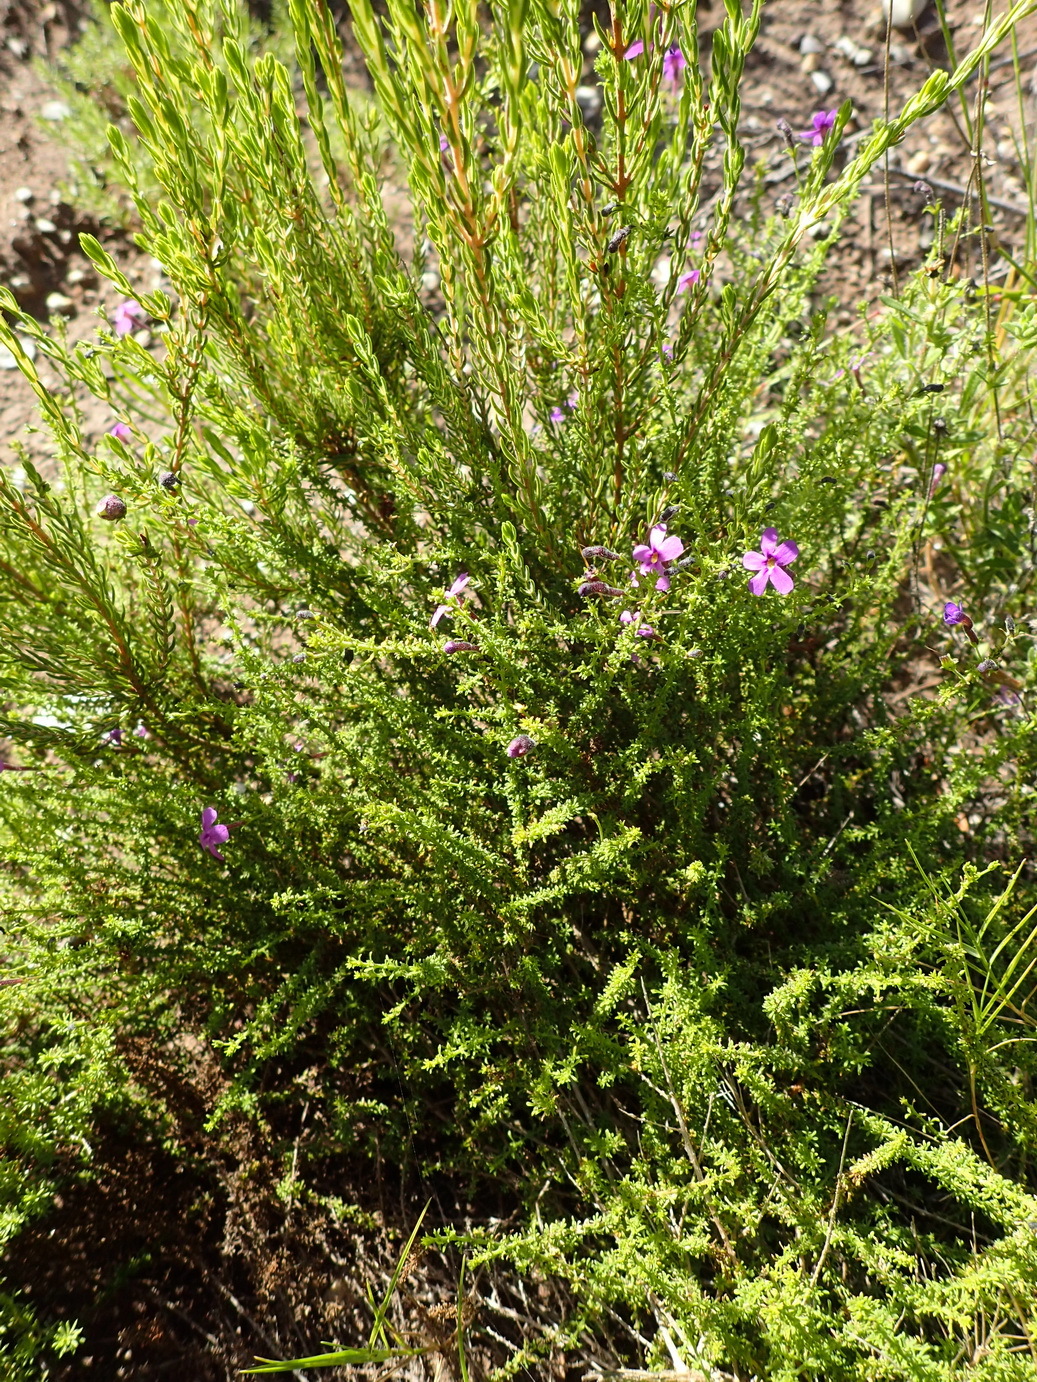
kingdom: Plantae
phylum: Tracheophyta
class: Magnoliopsida
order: Lamiales
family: Scrophulariaceae
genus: Jamesbrittenia
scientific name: Jamesbrittenia tenuifolia
